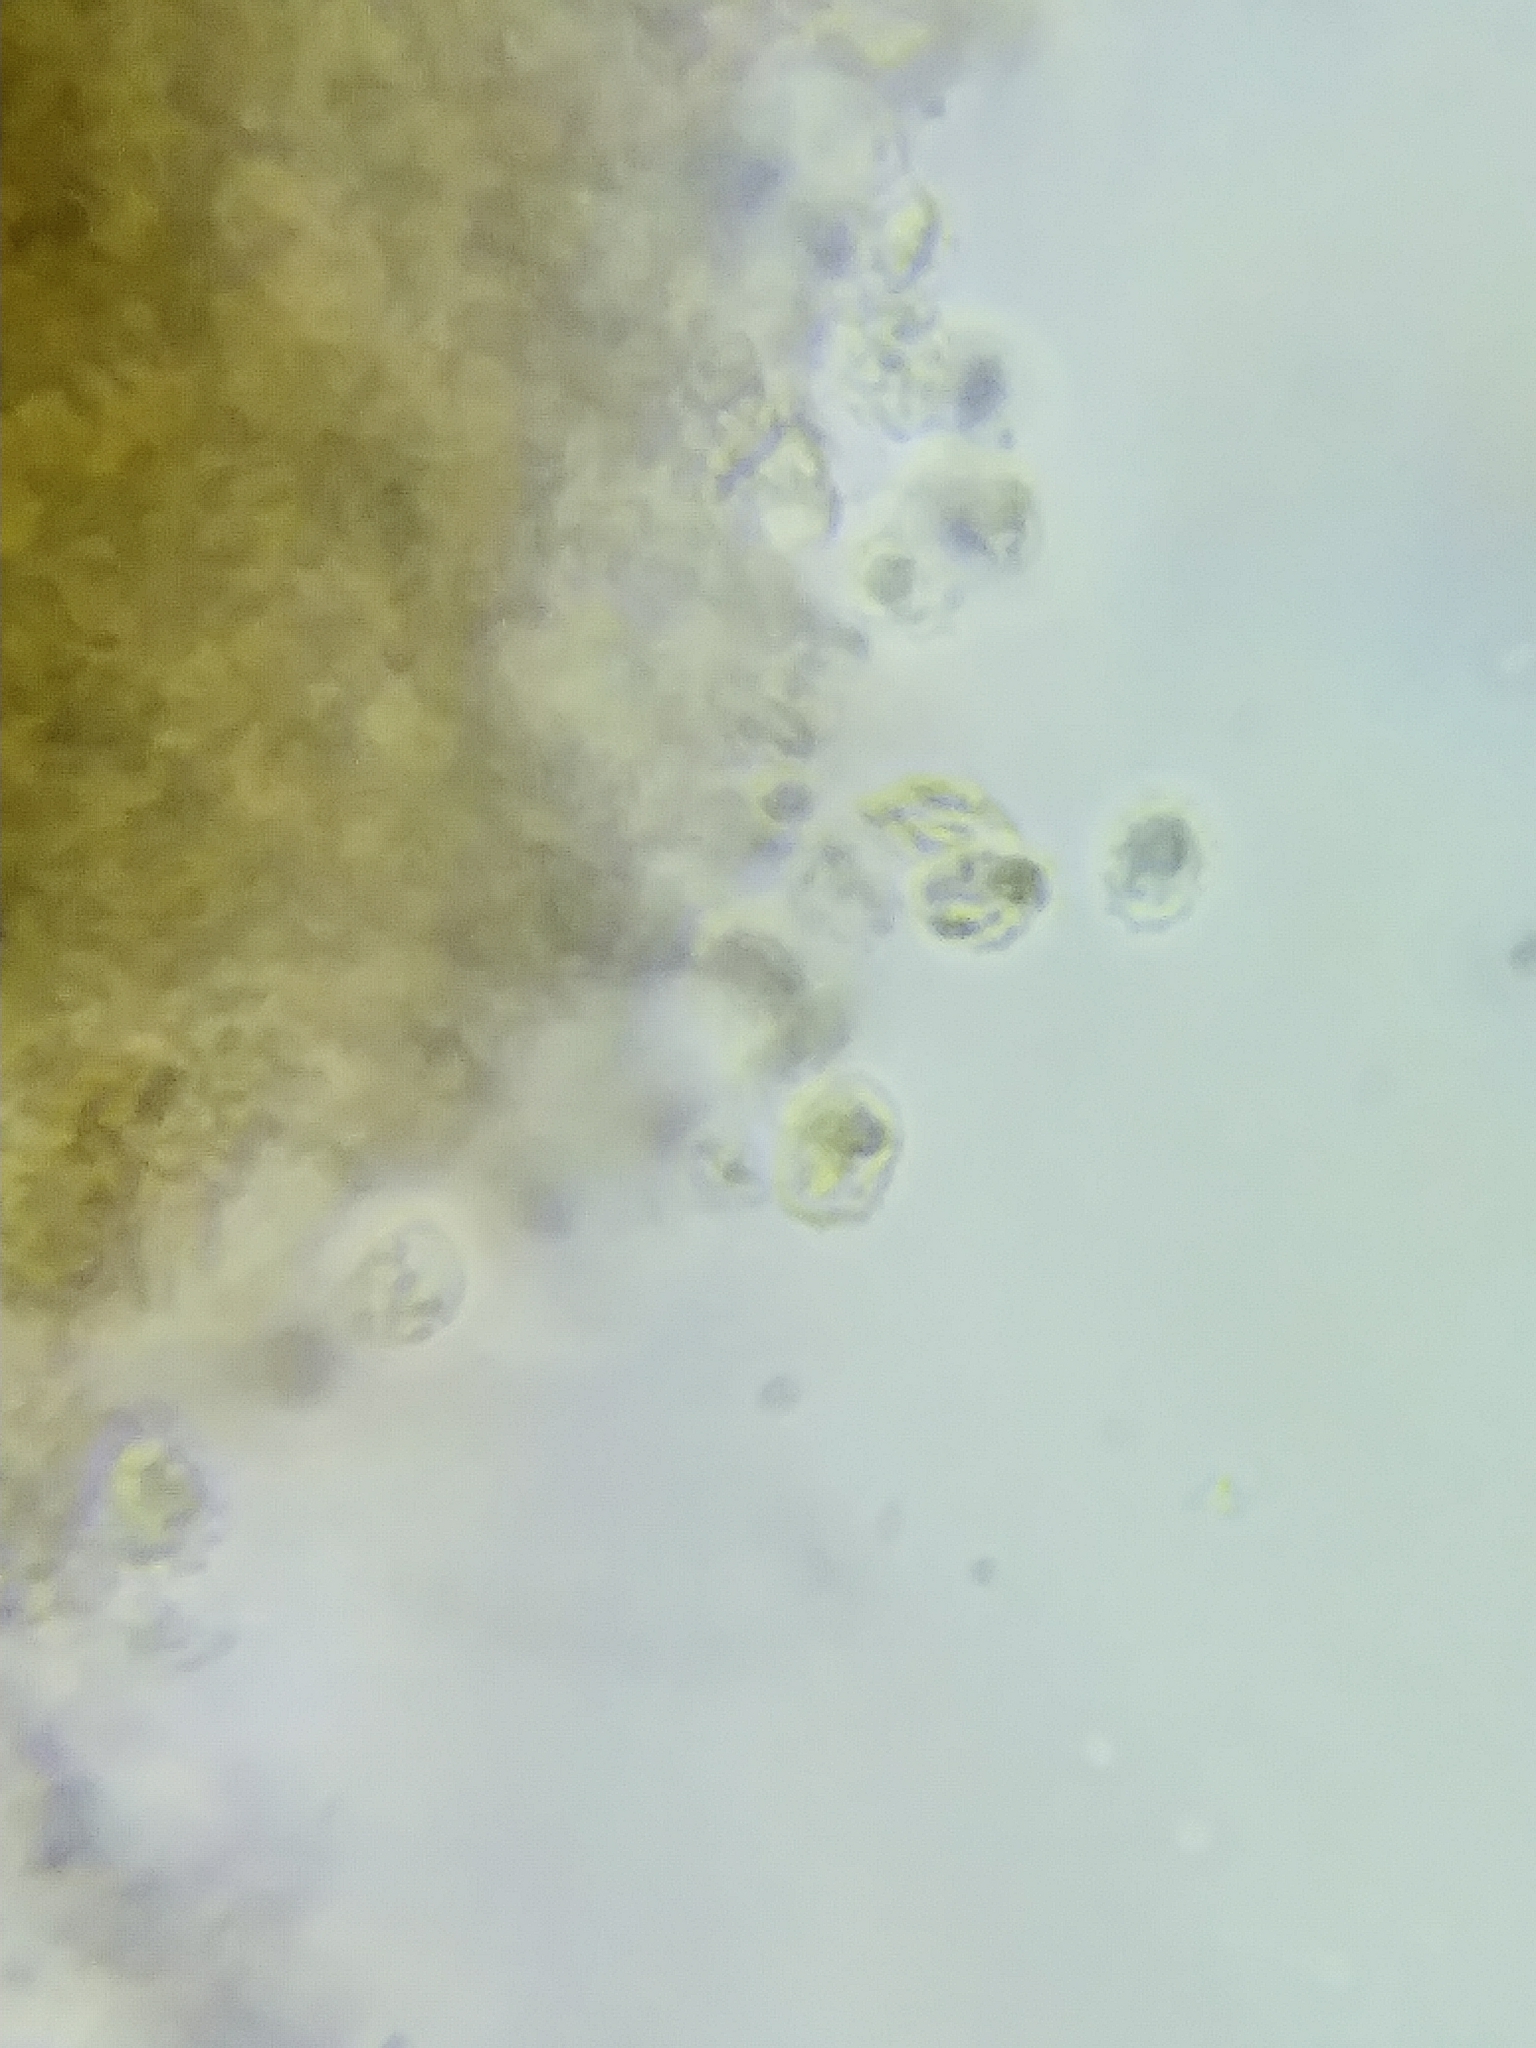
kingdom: Fungi
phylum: Basidiomycota
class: Agaricomycetes
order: Russulales
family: Xenasmataceae
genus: Xenasmatella
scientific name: Xenasmatella vaga
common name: Yellow cobweb
